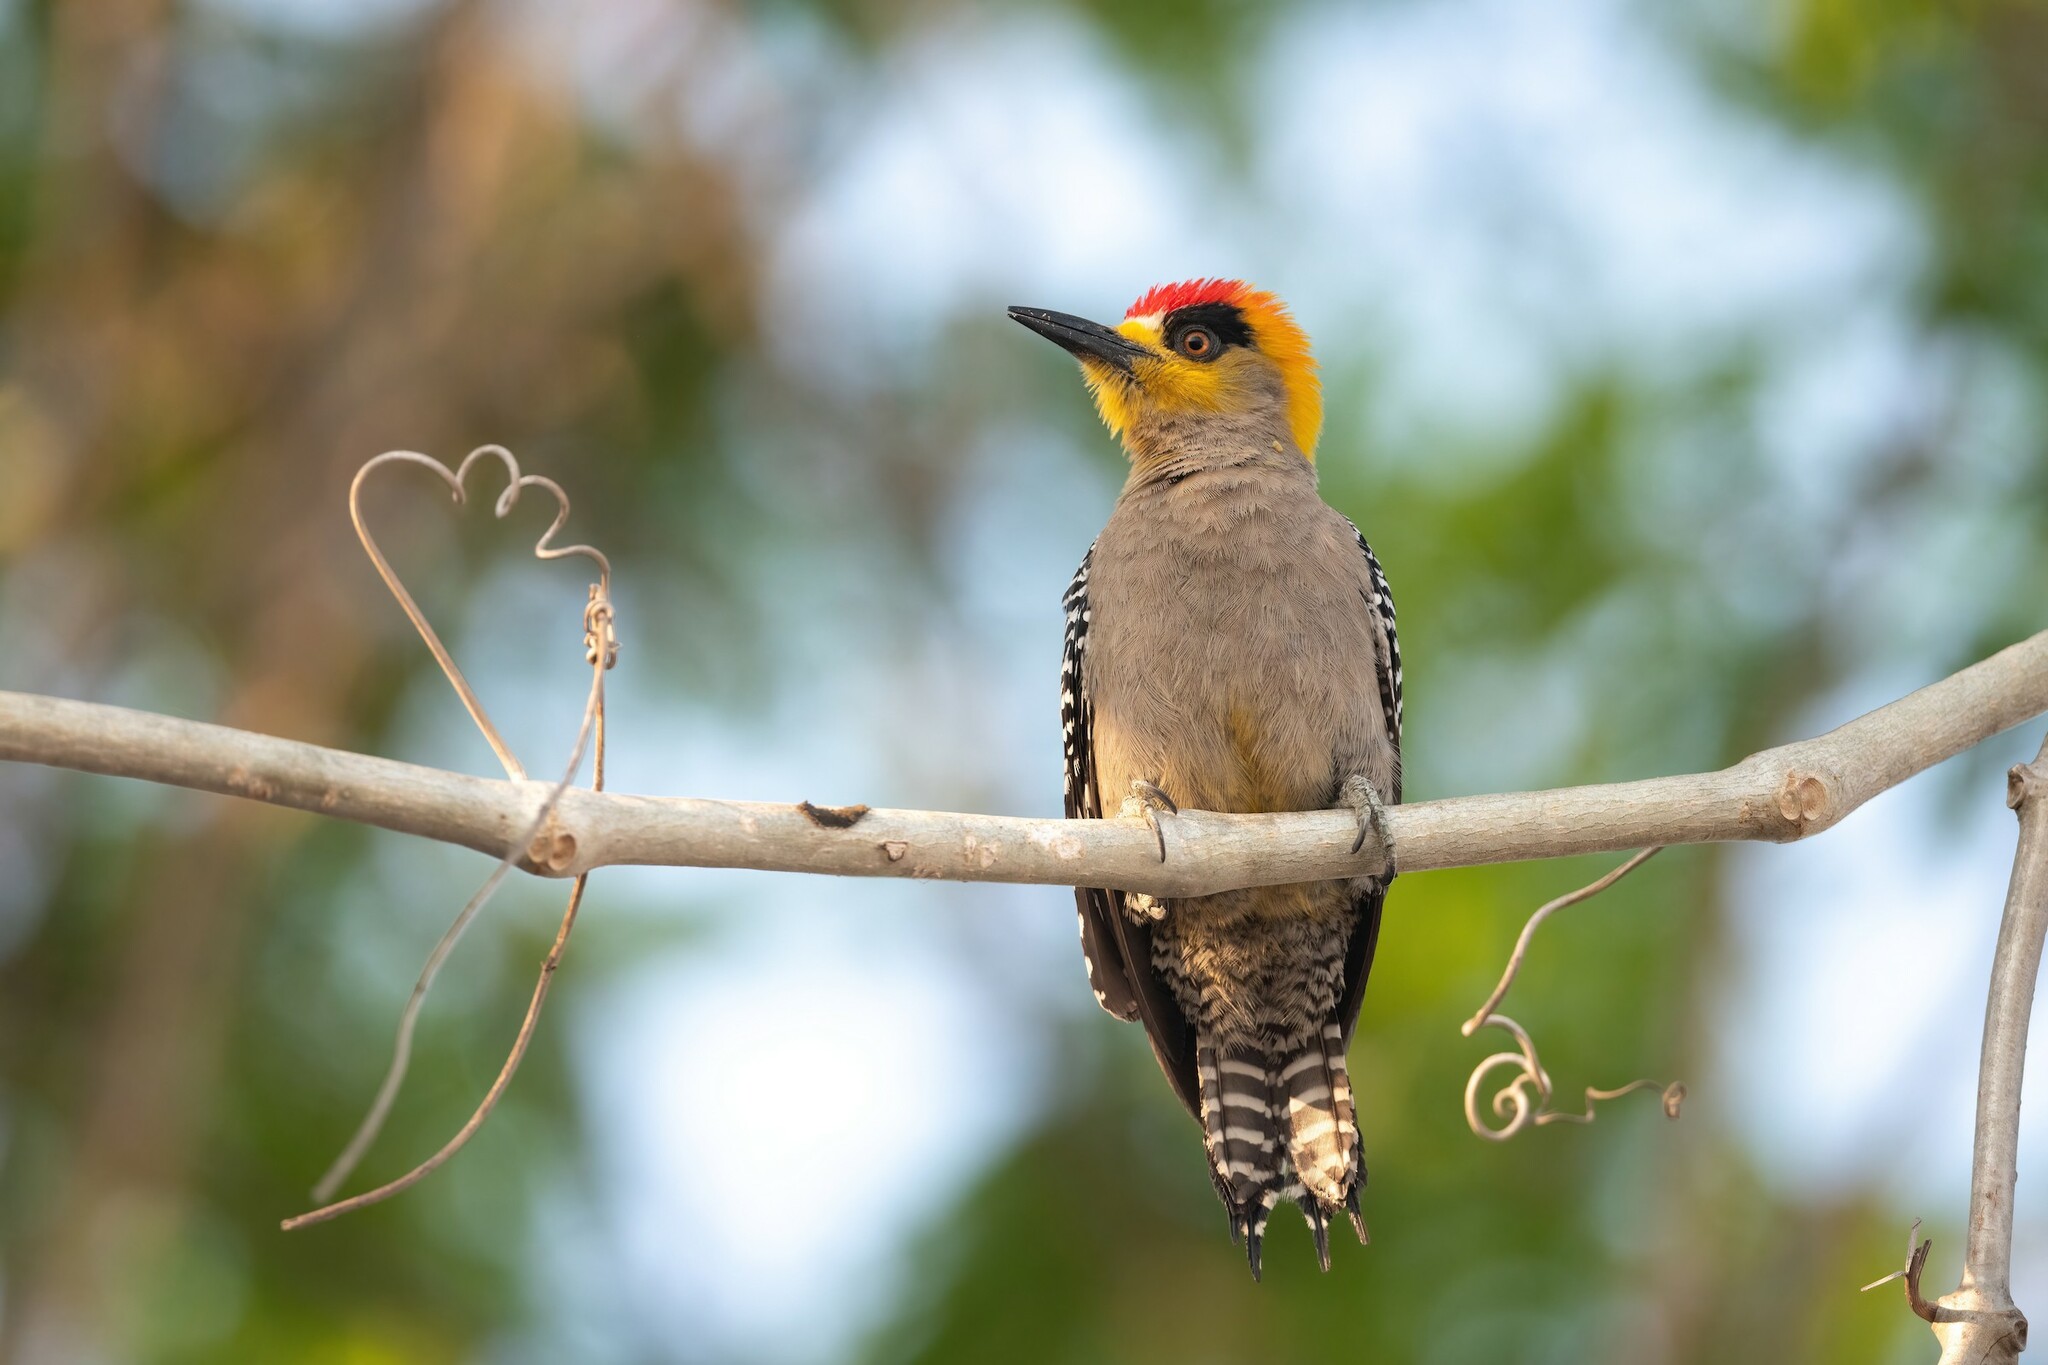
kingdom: Animalia
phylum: Chordata
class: Aves
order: Piciformes
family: Picidae
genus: Melanerpes
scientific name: Melanerpes chrysogenys
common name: Golden-cheeked woodpecker
